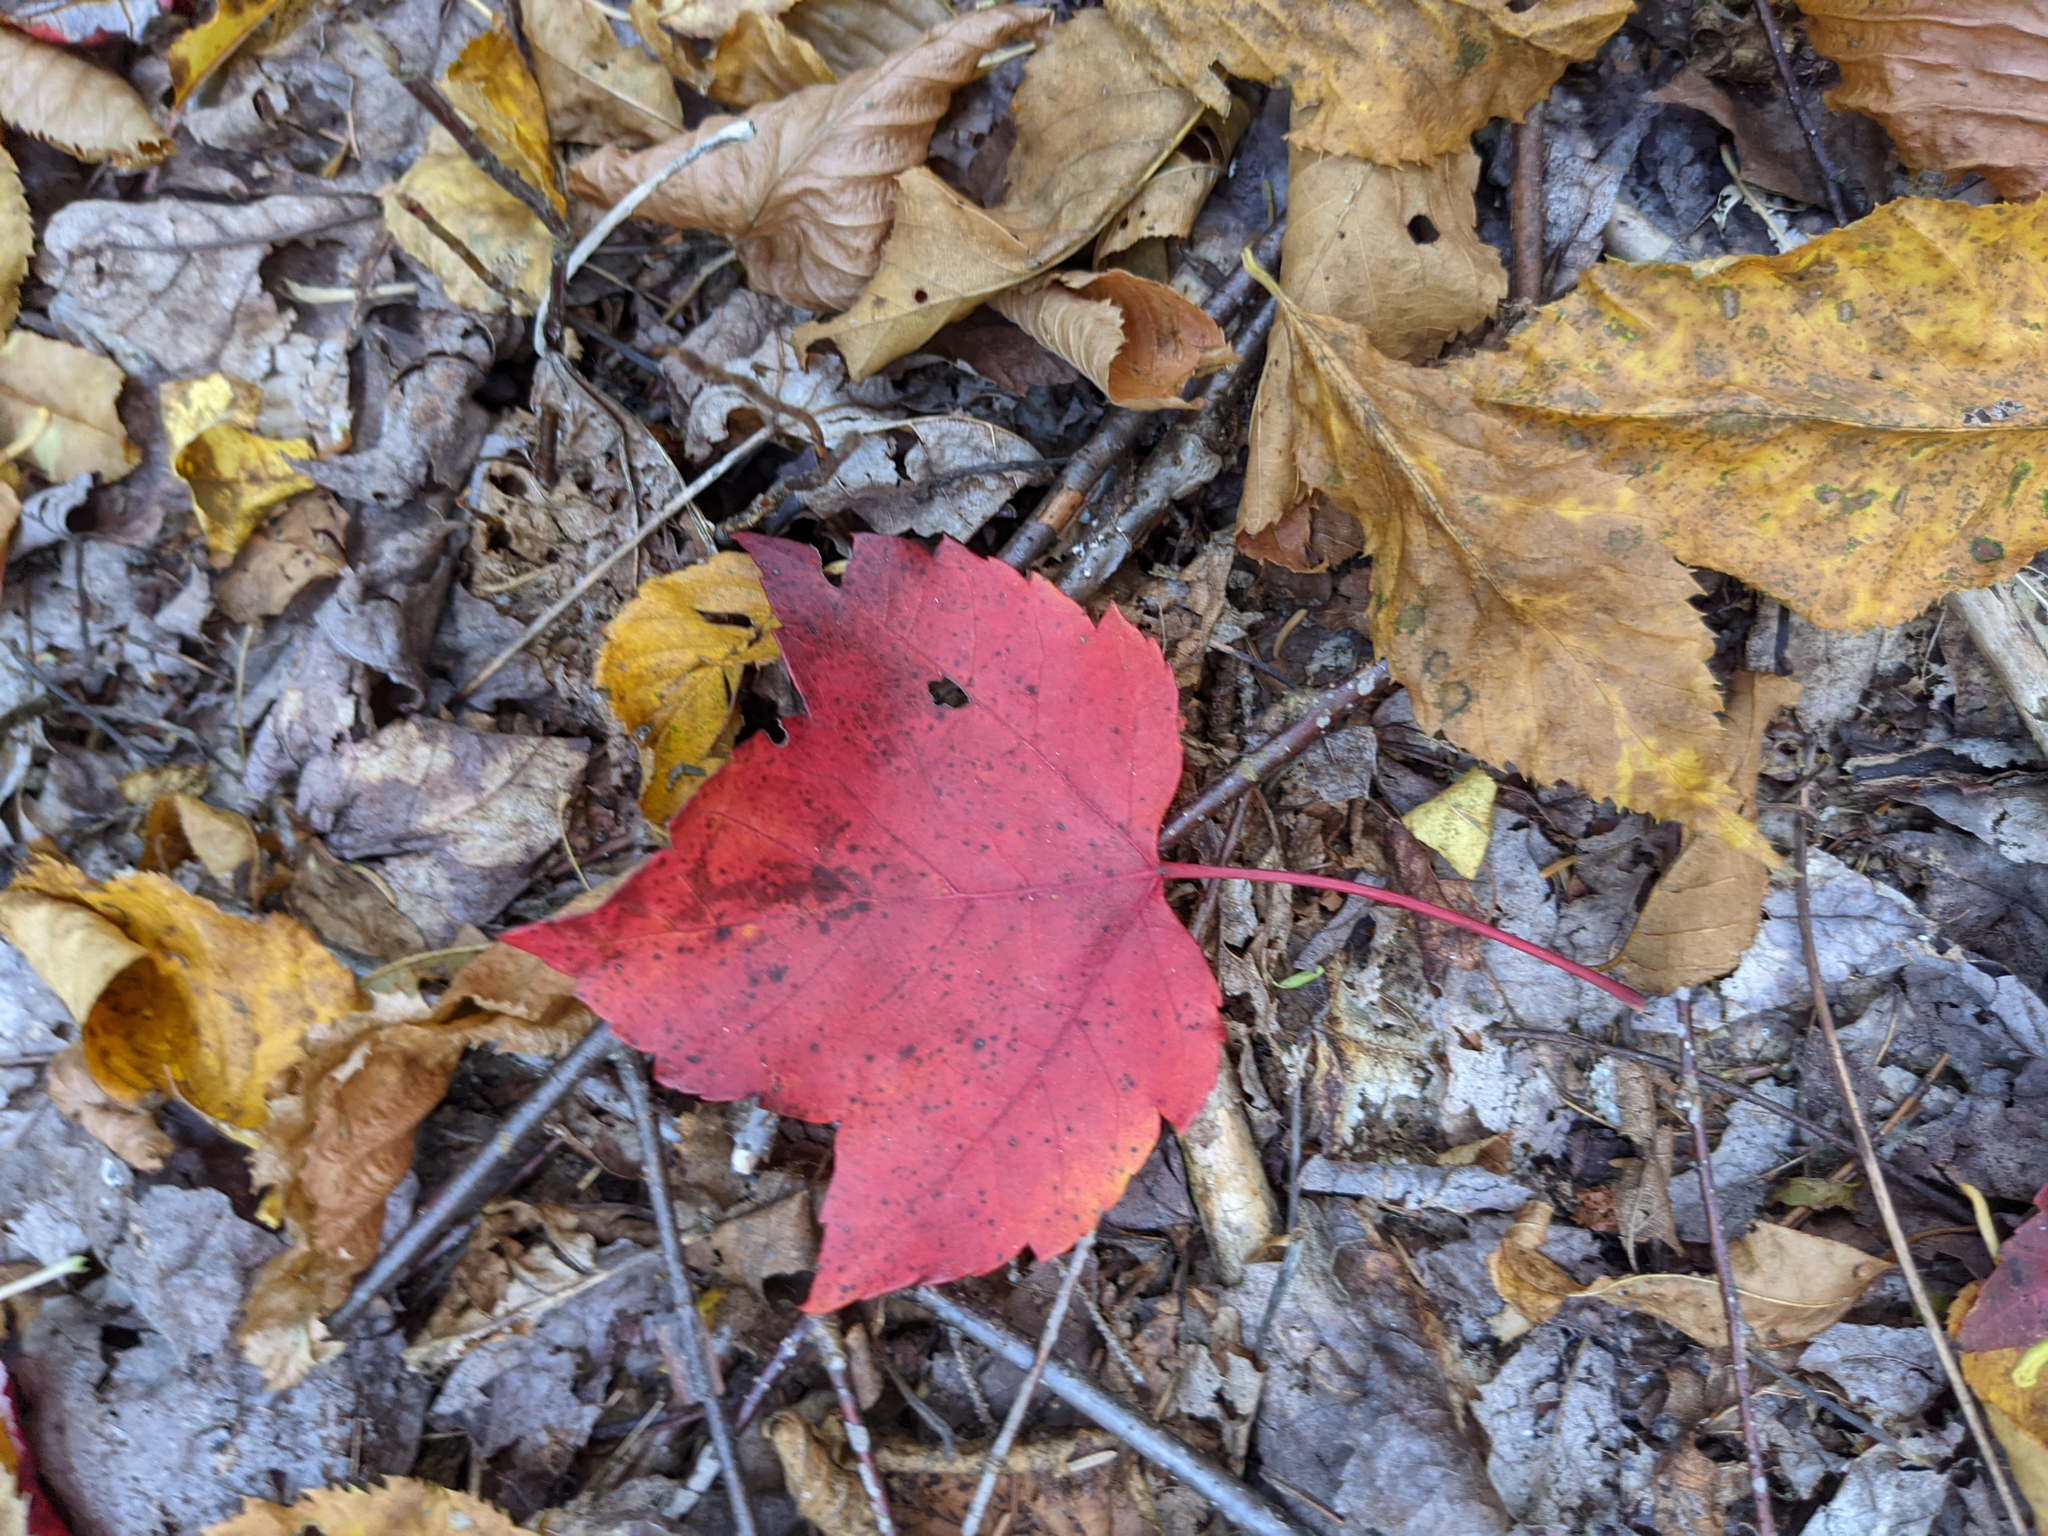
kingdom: Plantae
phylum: Tracheophyta
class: Magnoliopsida
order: Sapindales
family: Sapindaceae
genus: Acer
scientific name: Acer rubrum
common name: Red maple
